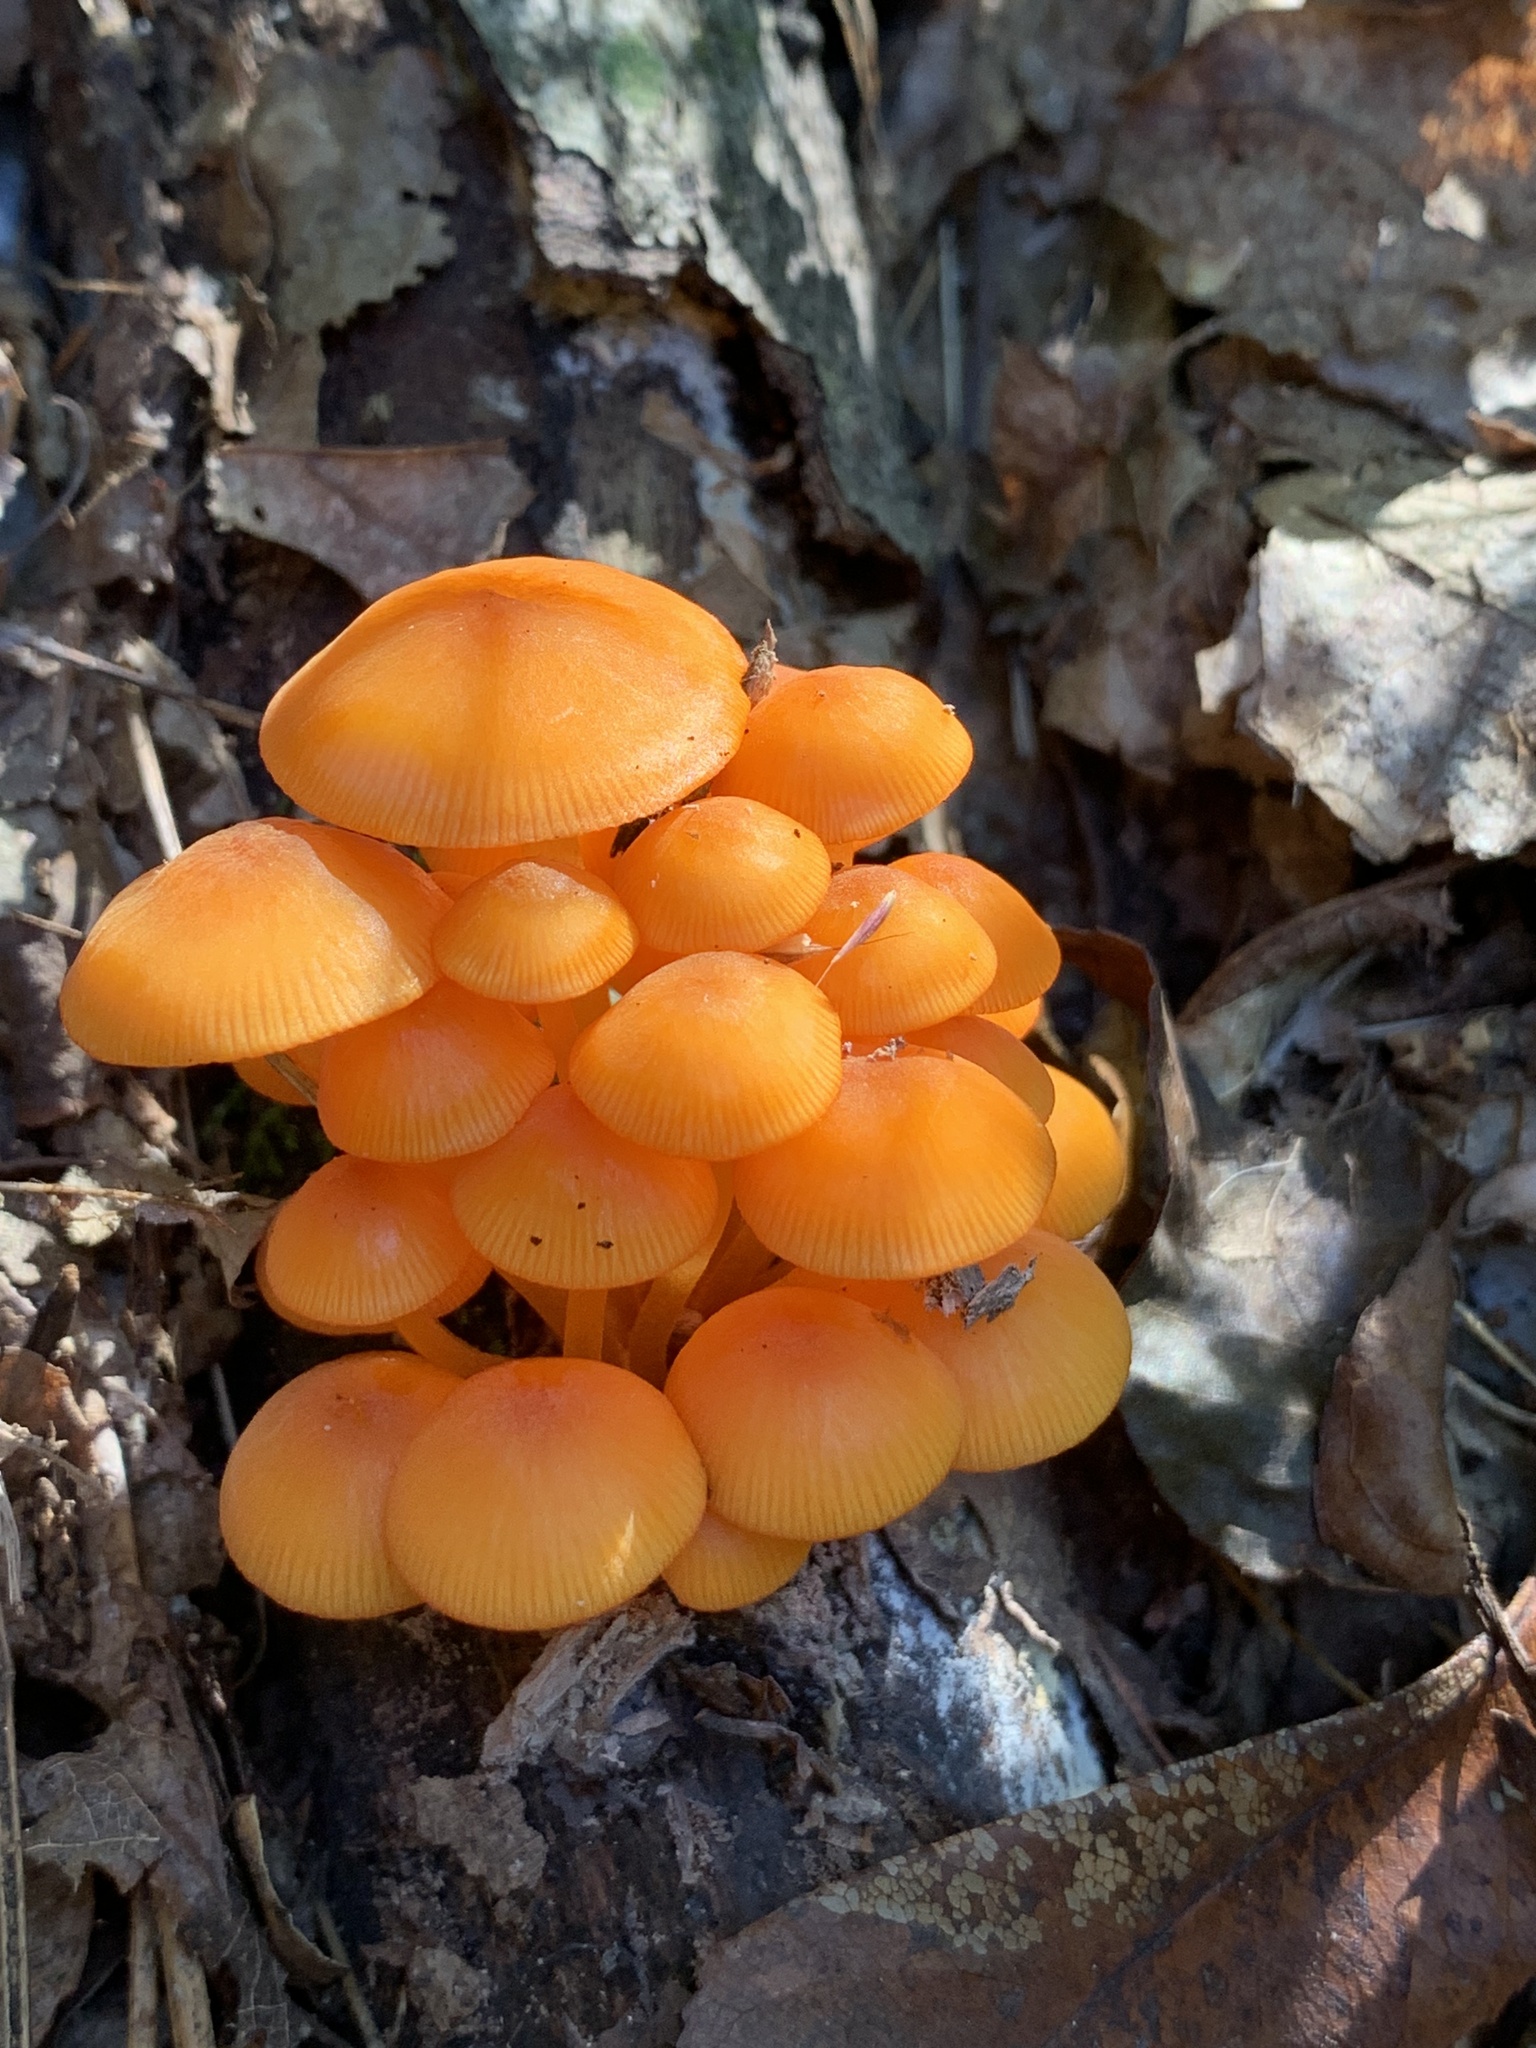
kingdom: Fungi
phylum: Basidiomycota
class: Agaricomycetes
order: Agaricales
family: Mycenaceae
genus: Mycena
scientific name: Mycena leaiana
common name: Orange mycena
